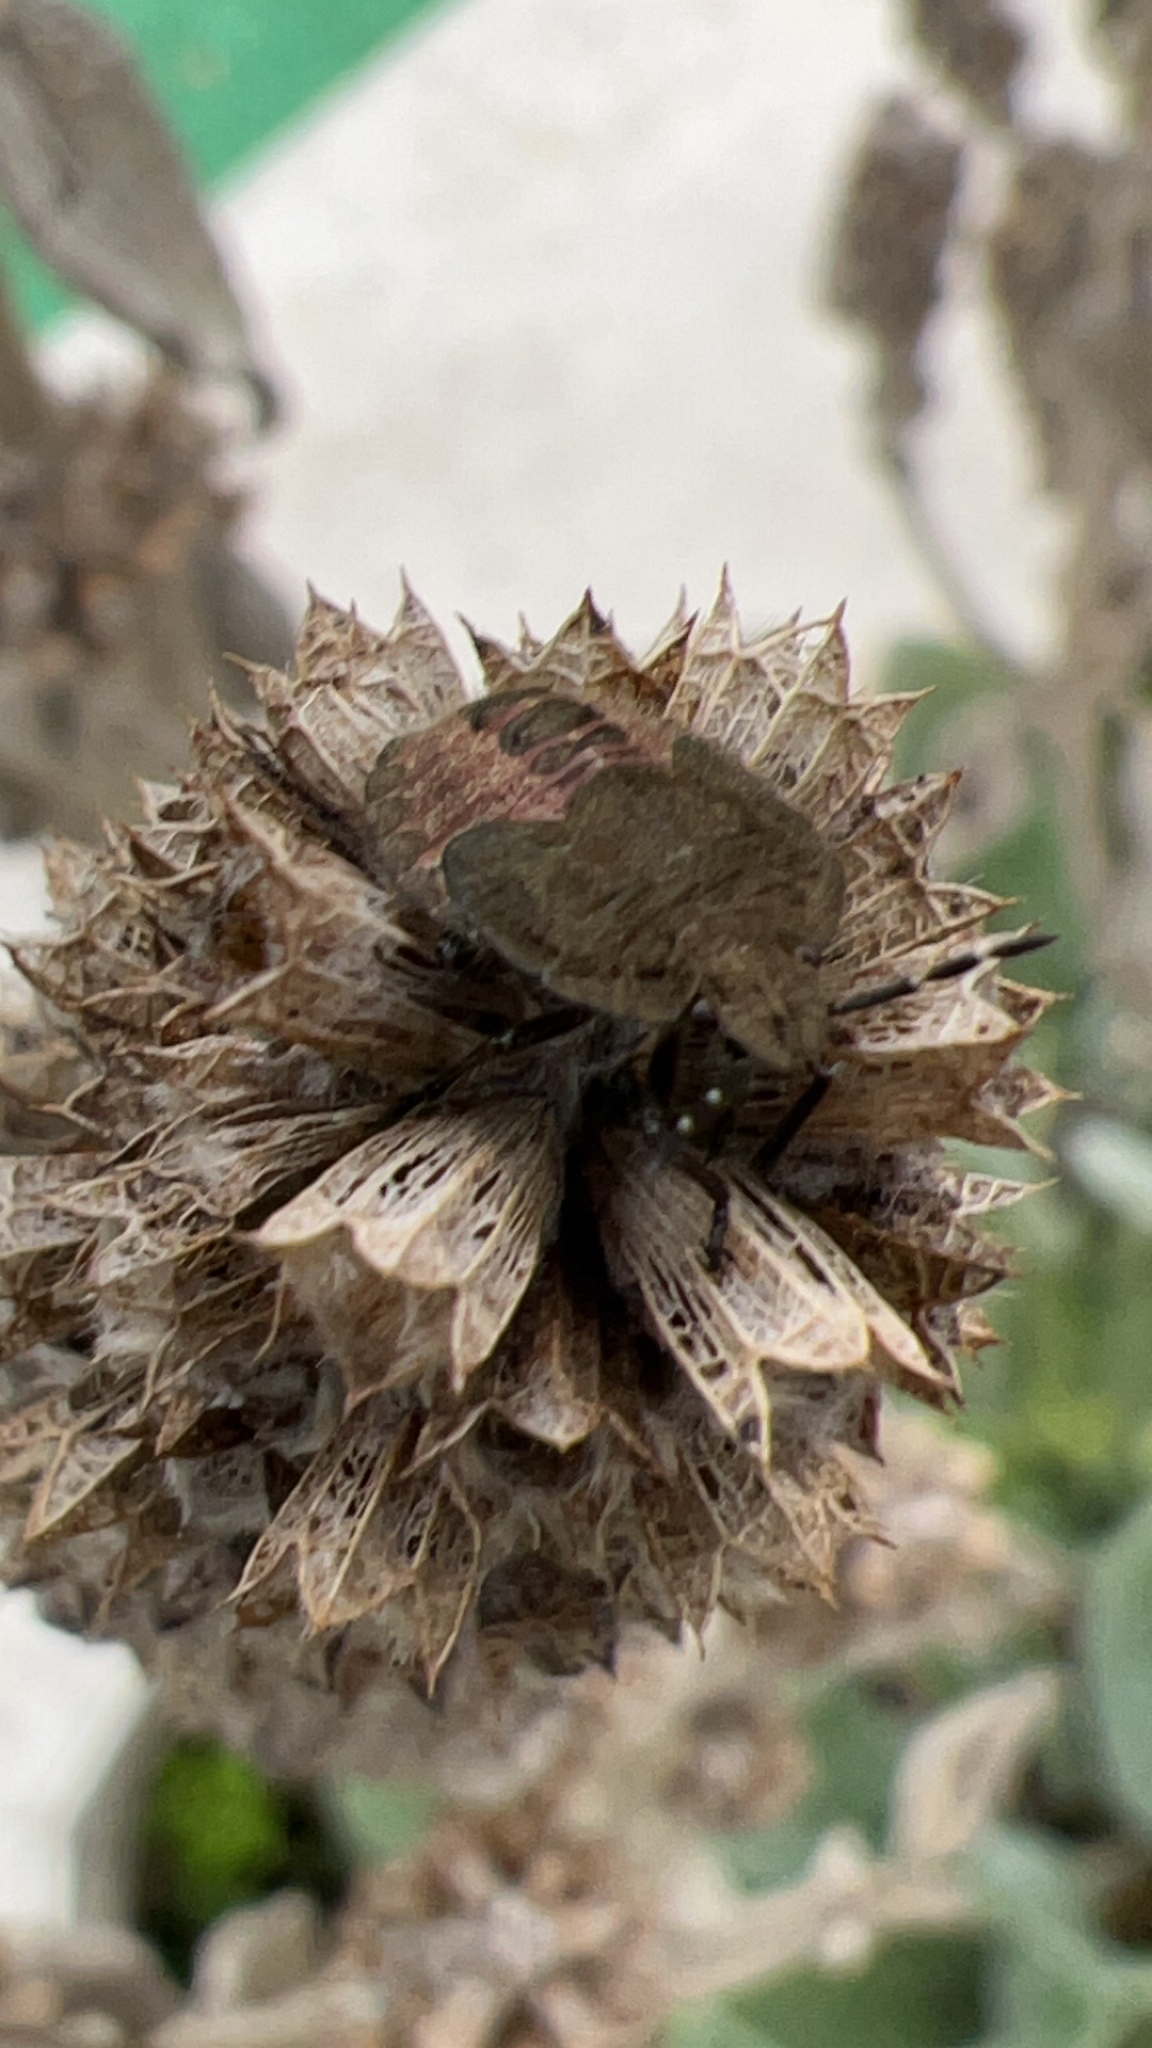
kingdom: Animalia
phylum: Arthropoda
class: Insecta
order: Hemiptera
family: Pentatomidae
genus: Dolycoris
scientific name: Dolycoris baccarum
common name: Sloe bug
